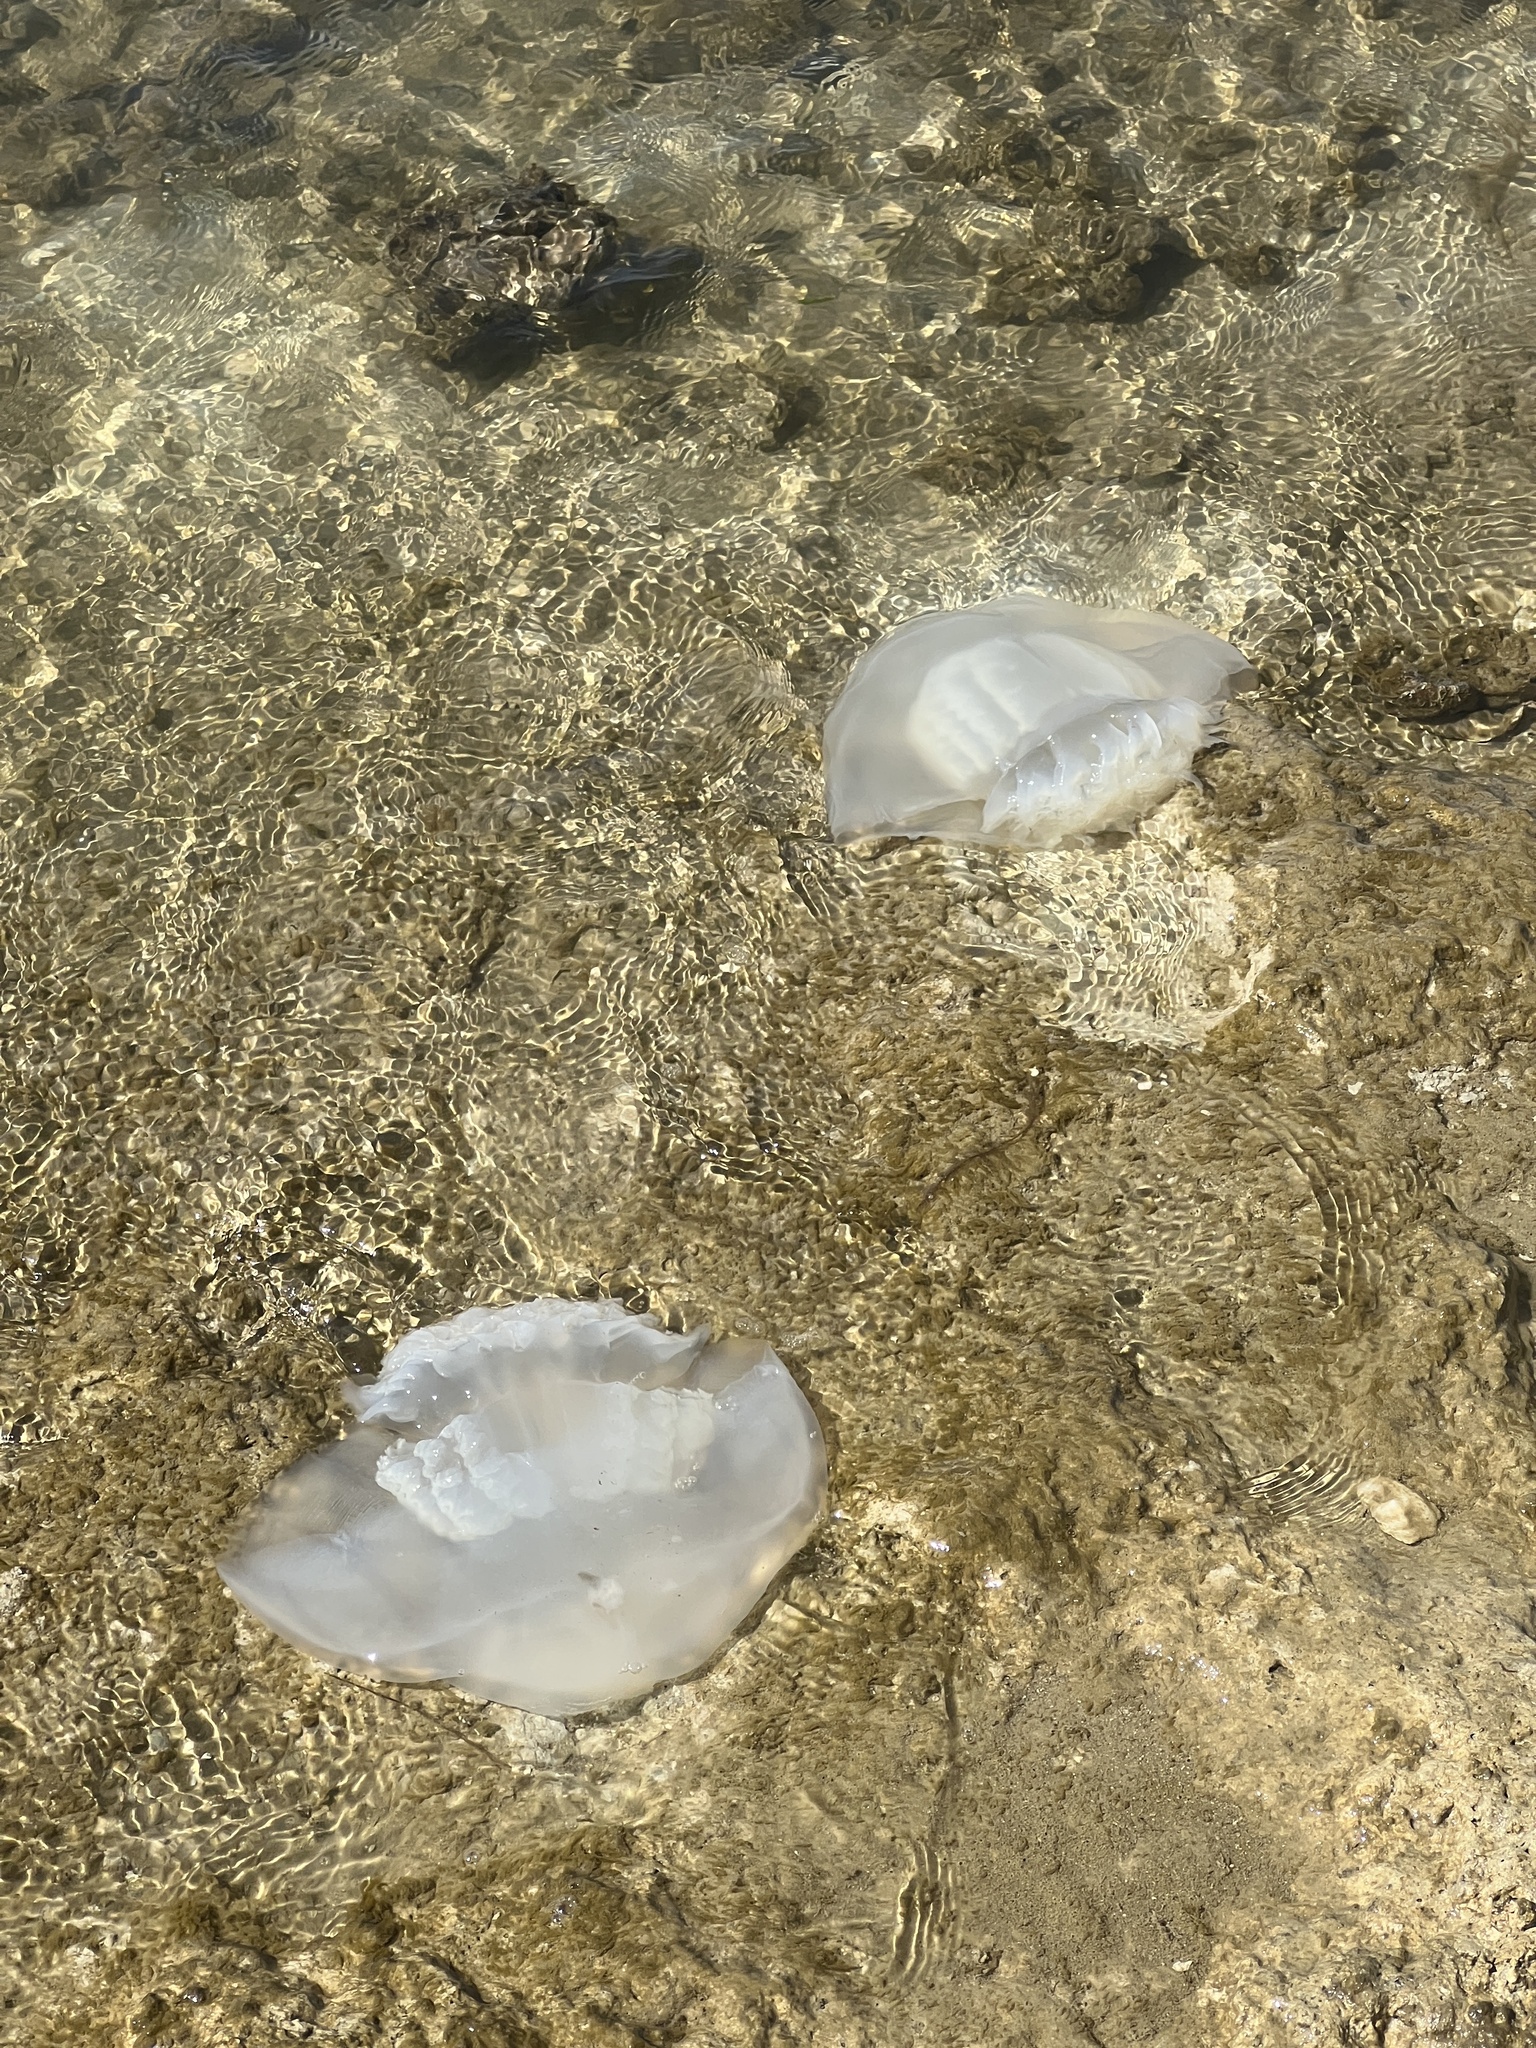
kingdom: Animalia
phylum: Cnidaria
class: Scyphozoa
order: Rhizostomeae
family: Stomolophidae
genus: Stomolophus
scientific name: Stomolophus meleagris
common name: Cabbagehead
